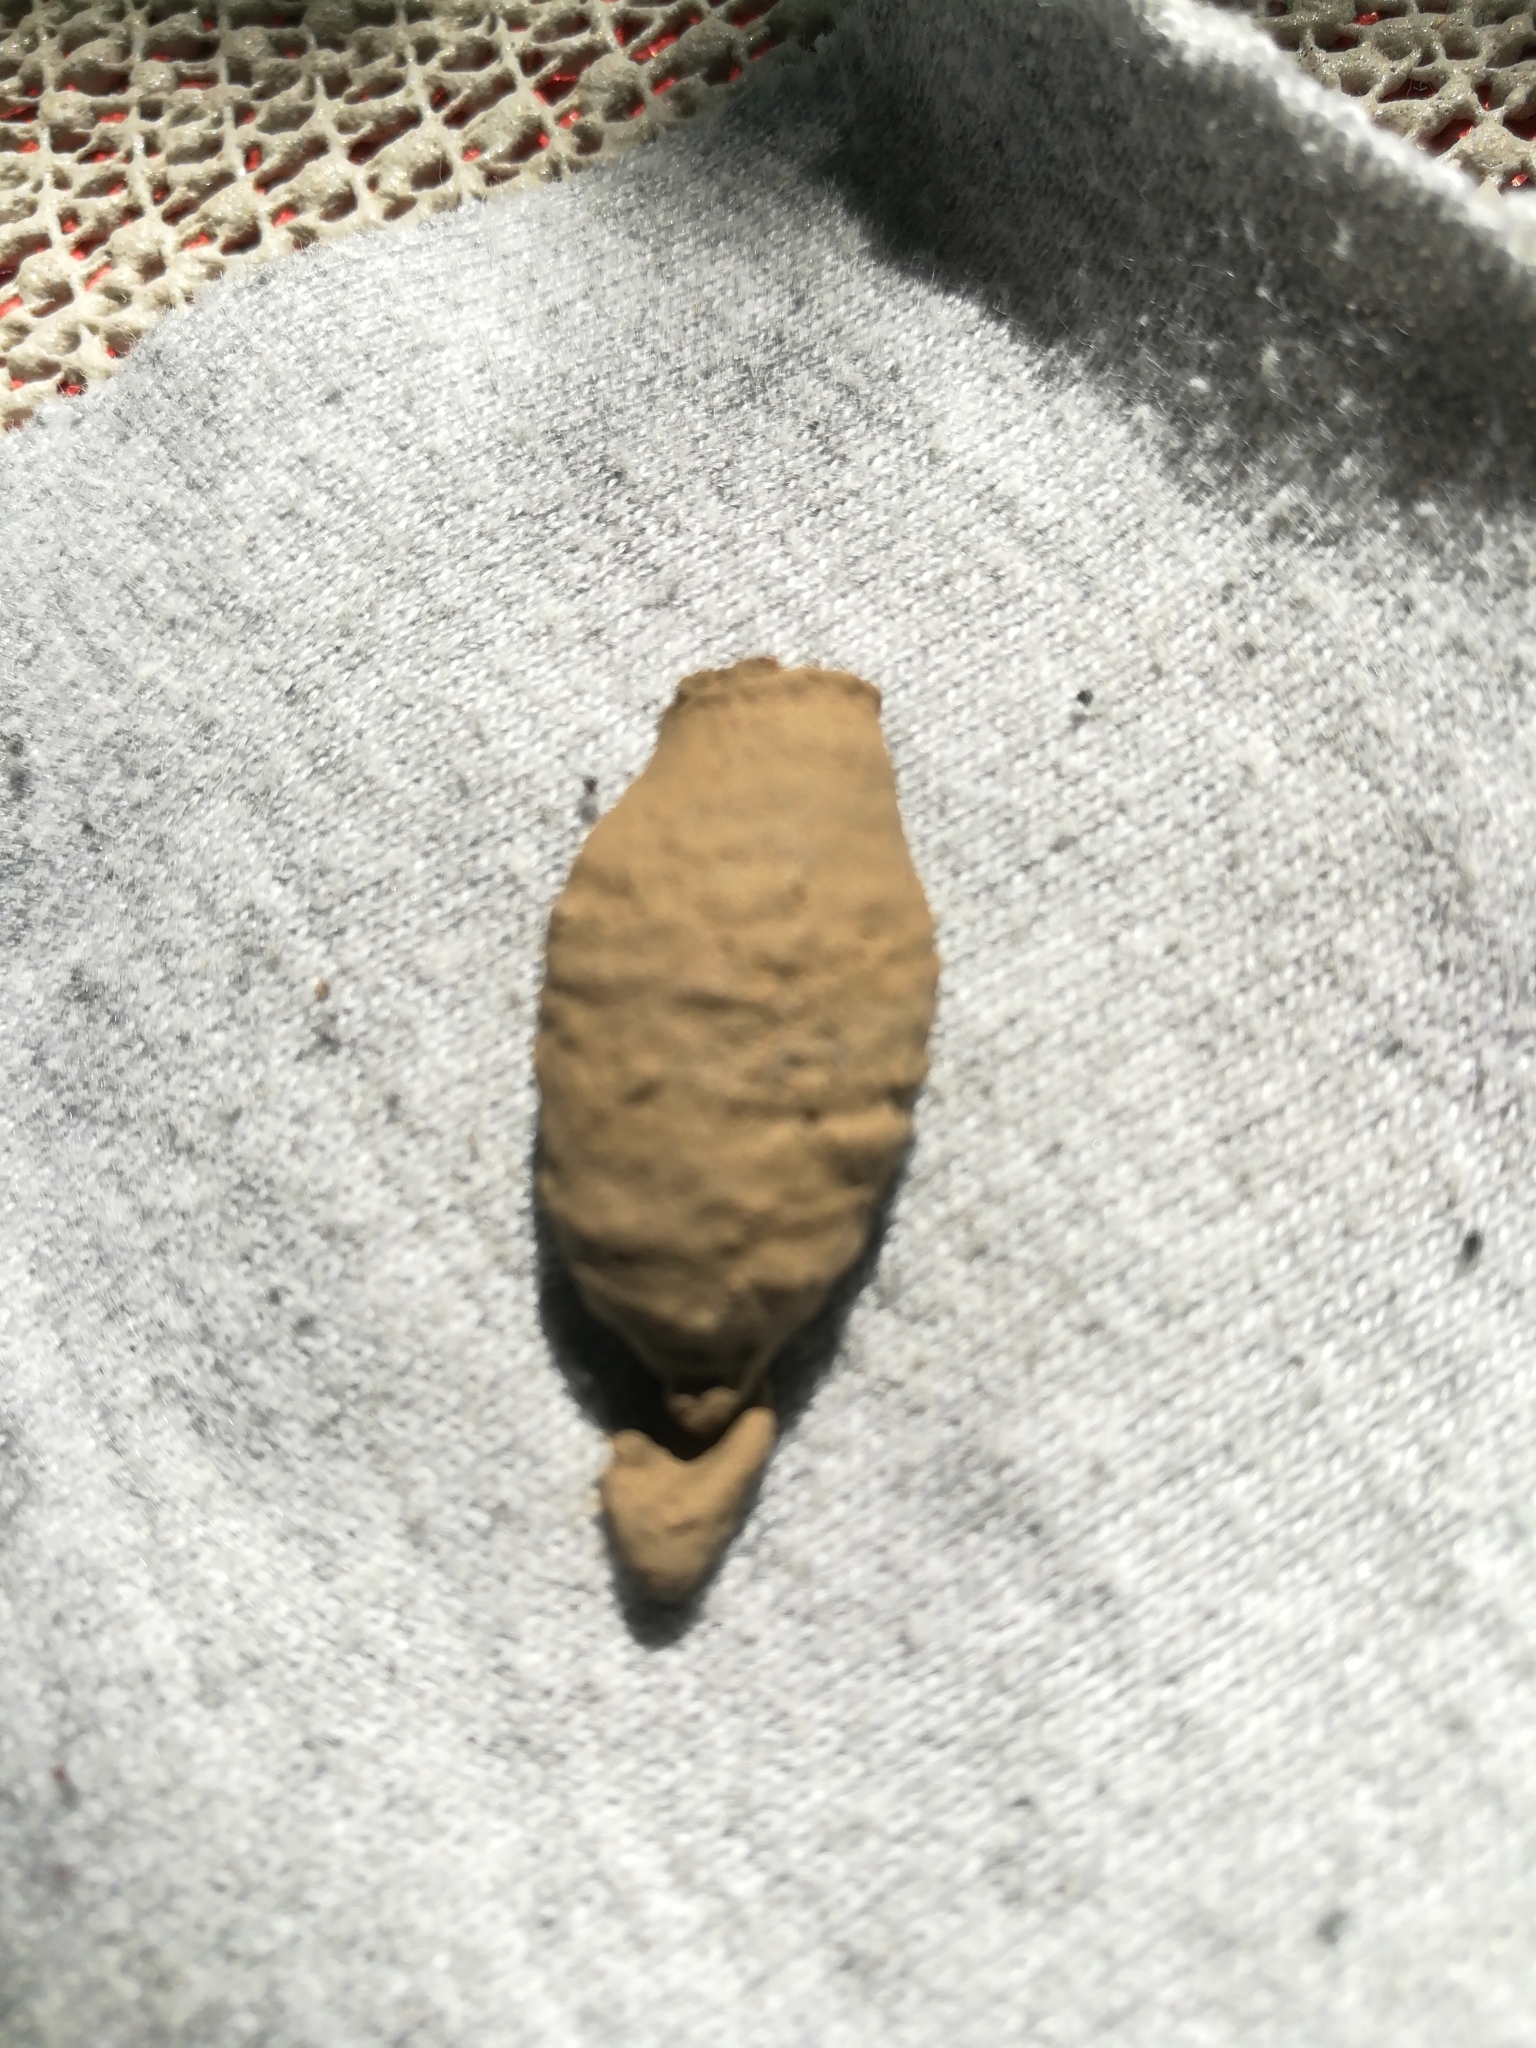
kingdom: Animalia
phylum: Arthropoda
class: Insecta
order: Hymenoptera
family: Sphecidae
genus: Sceliphron
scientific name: Sceliphron curvatum
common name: Pèlopèe
